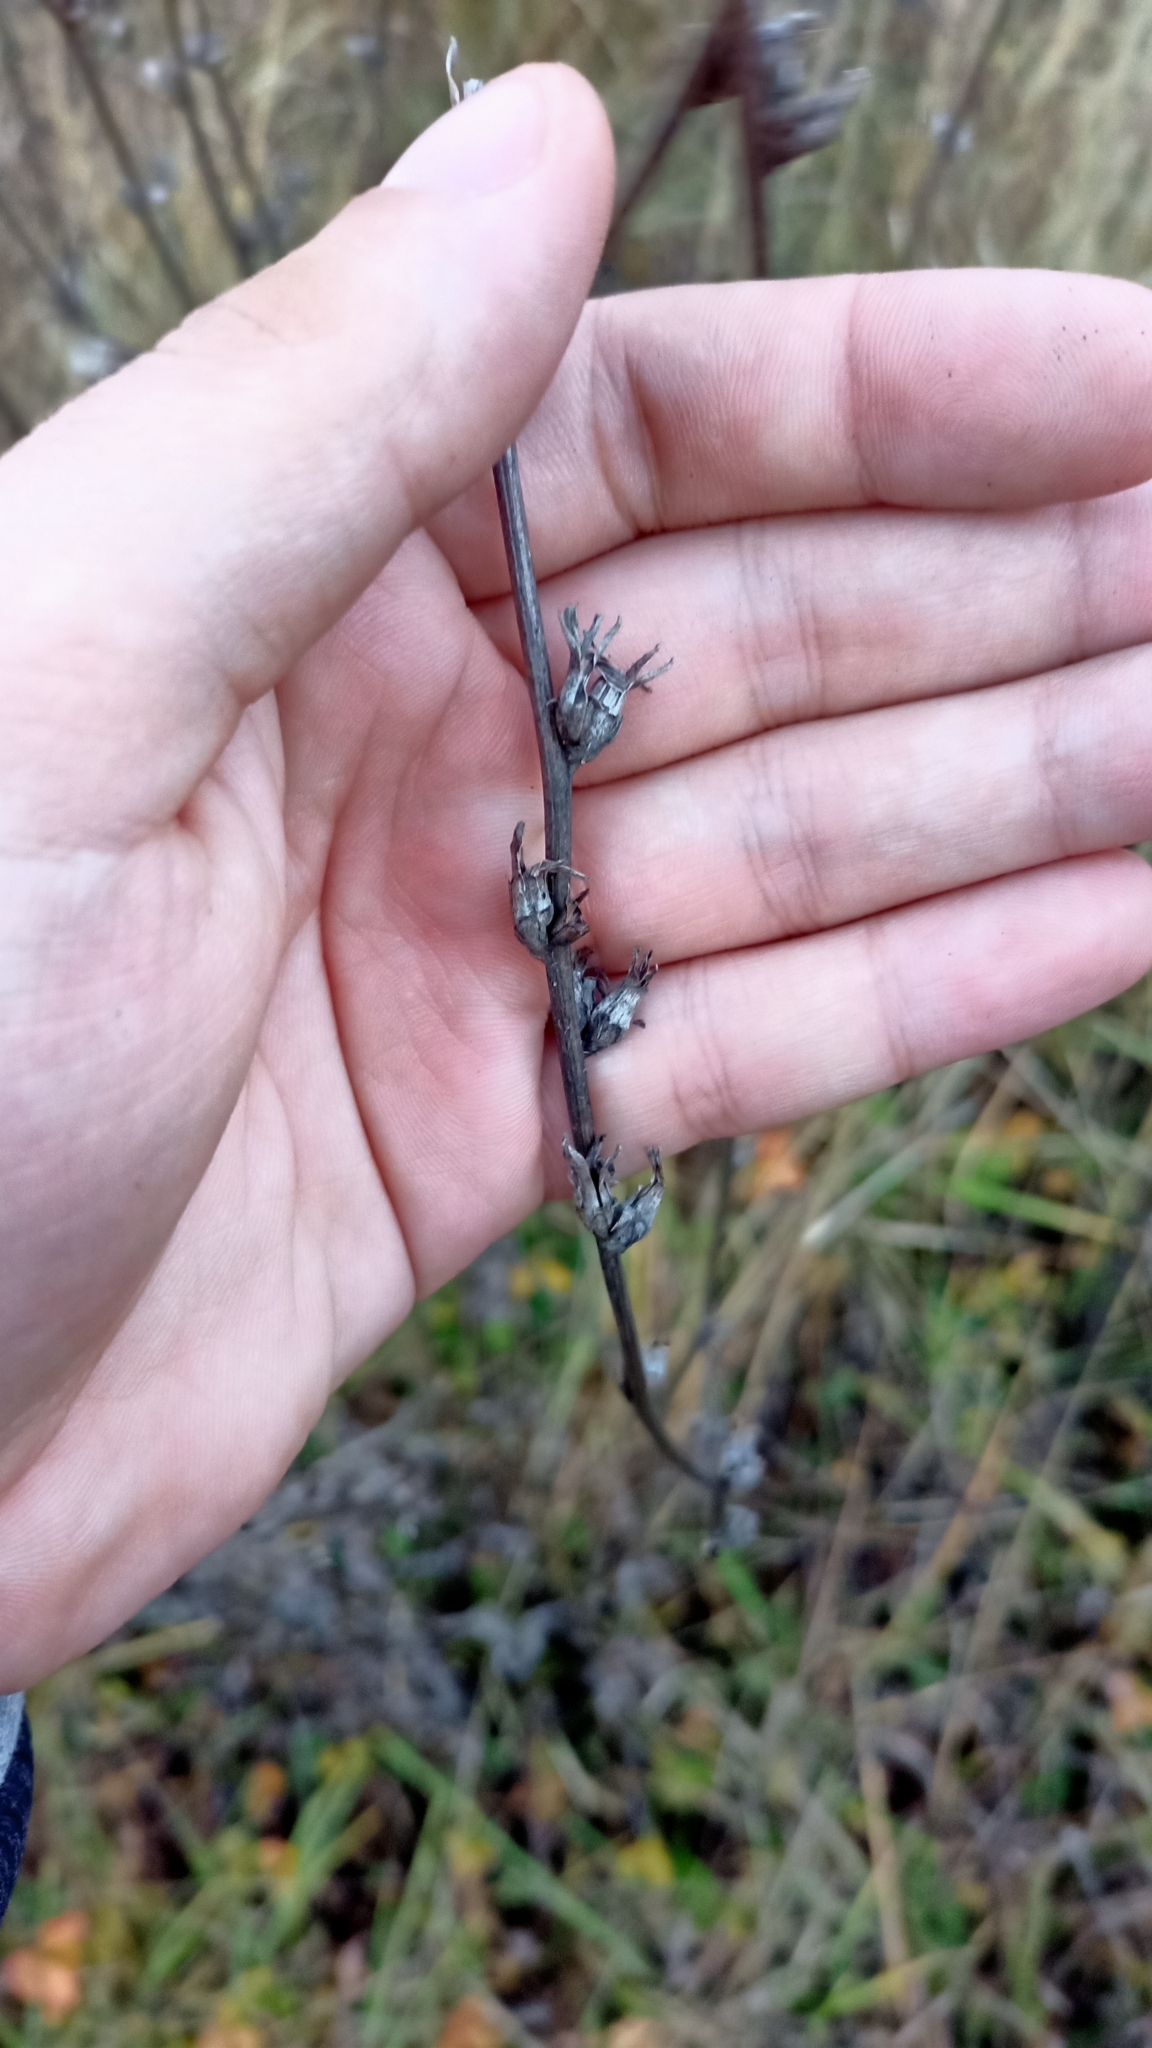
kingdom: Plantae
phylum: Tracheophyta
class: Magnoliopsida
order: Asterales
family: Asteraceae
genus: Cichorium
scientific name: Cichorium intybus
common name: Chicory
